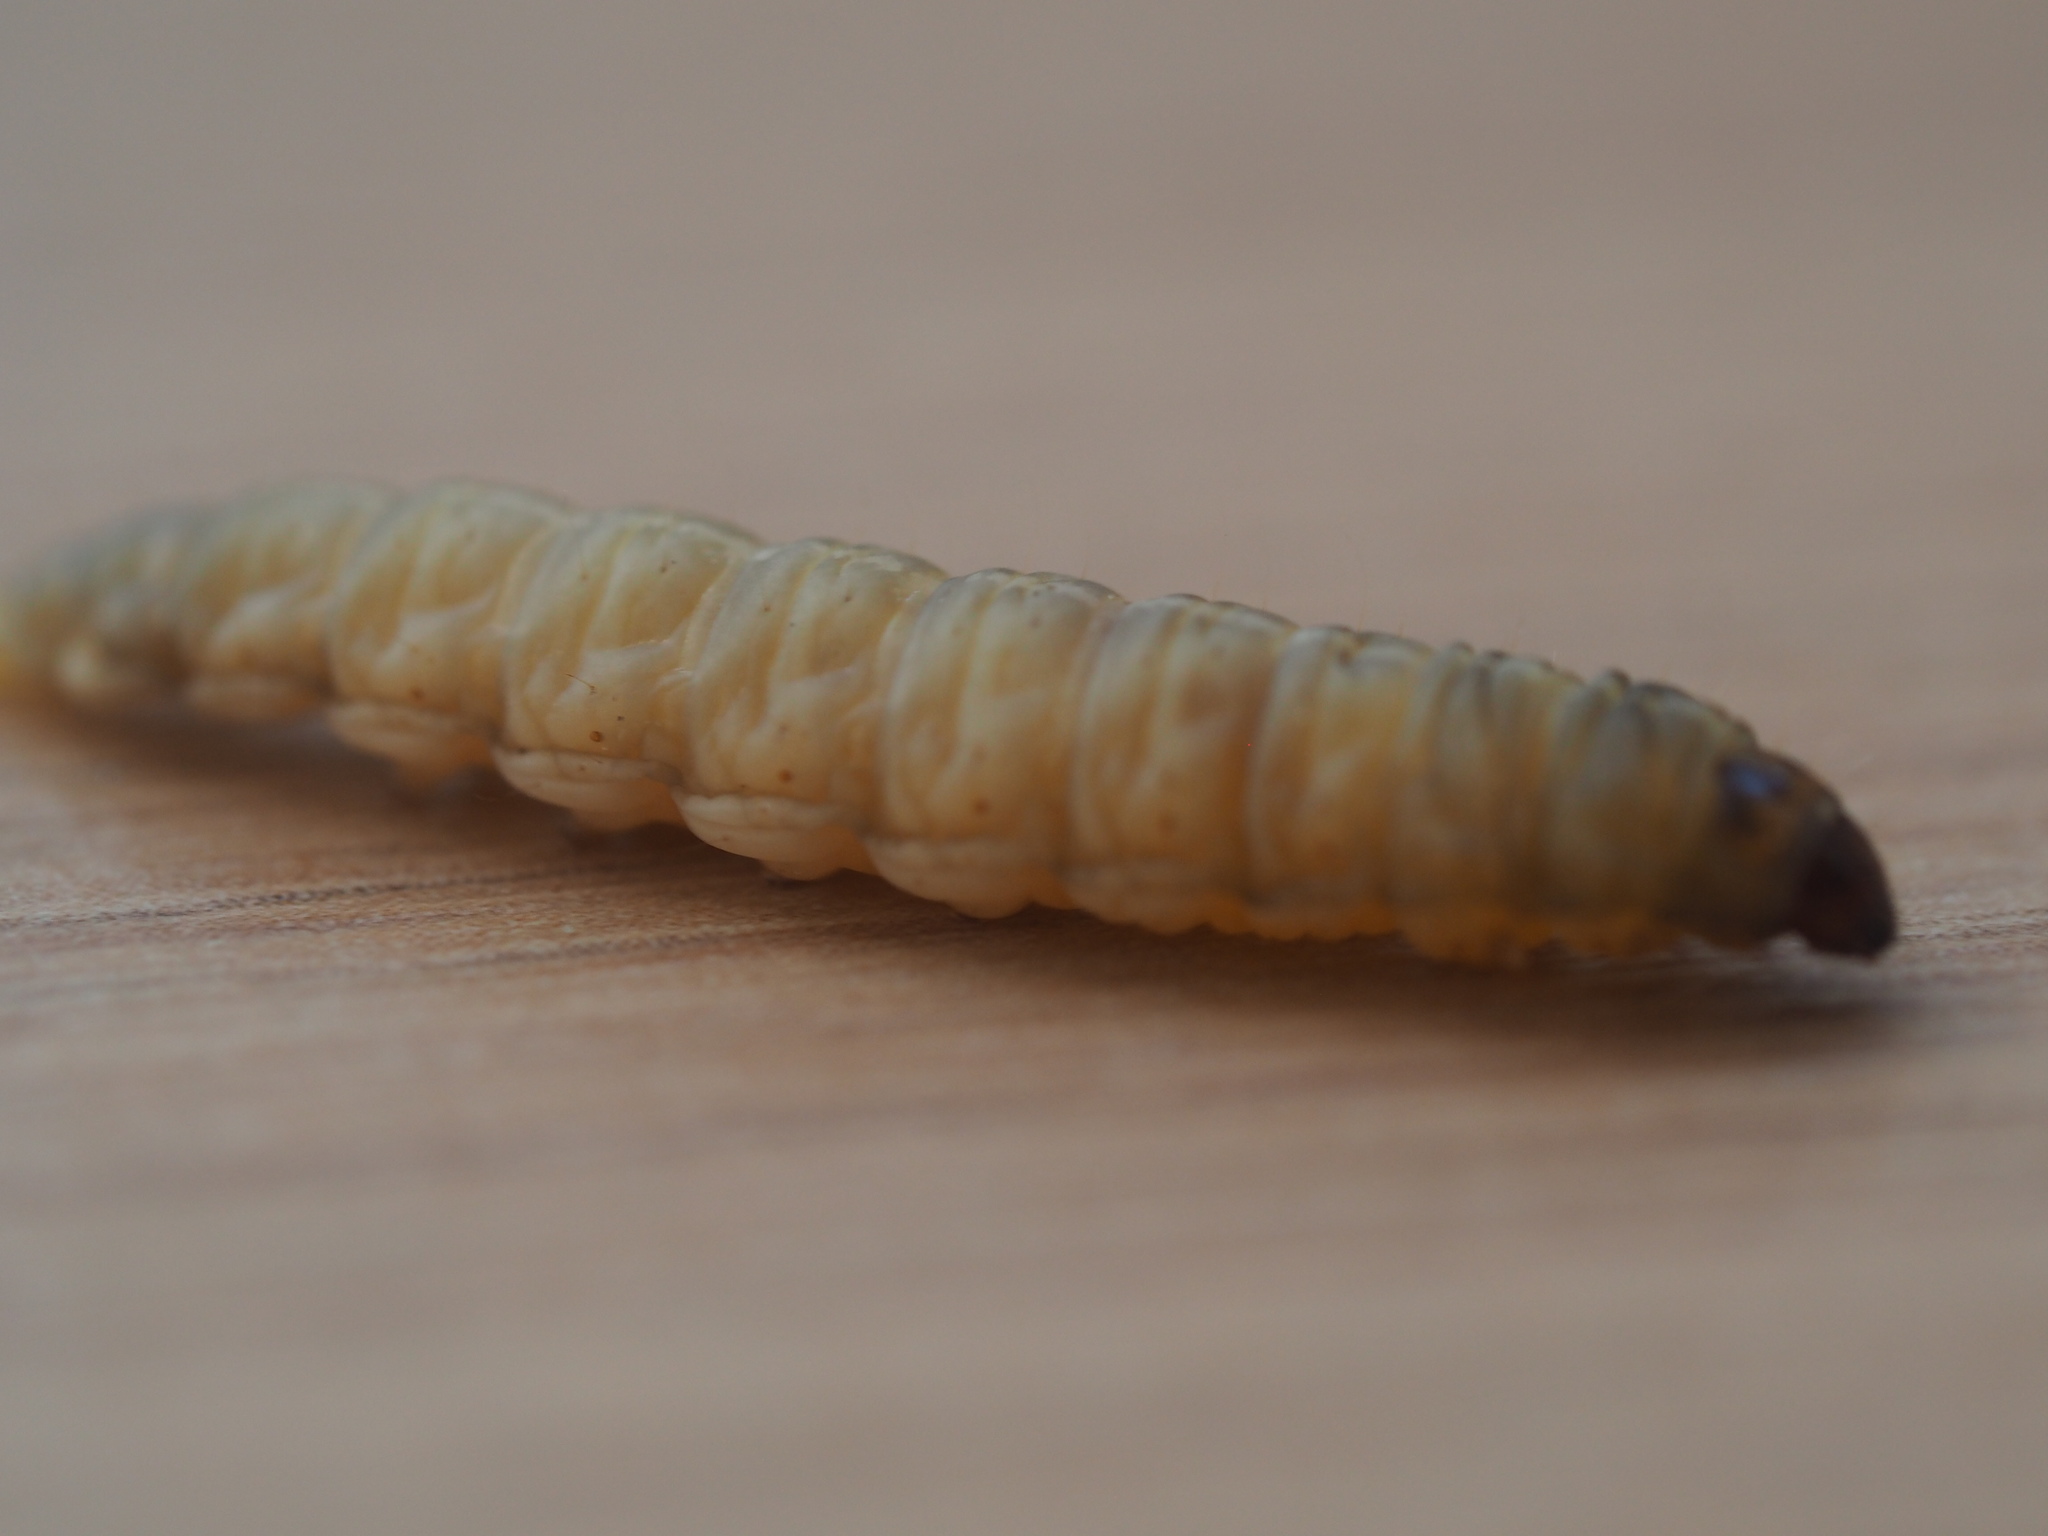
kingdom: Animalia
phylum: Arthropoda
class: Insecta
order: Lepidoptera
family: Pyralidae
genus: Galleria
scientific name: Galleria mellonella
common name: Greater wax moth
